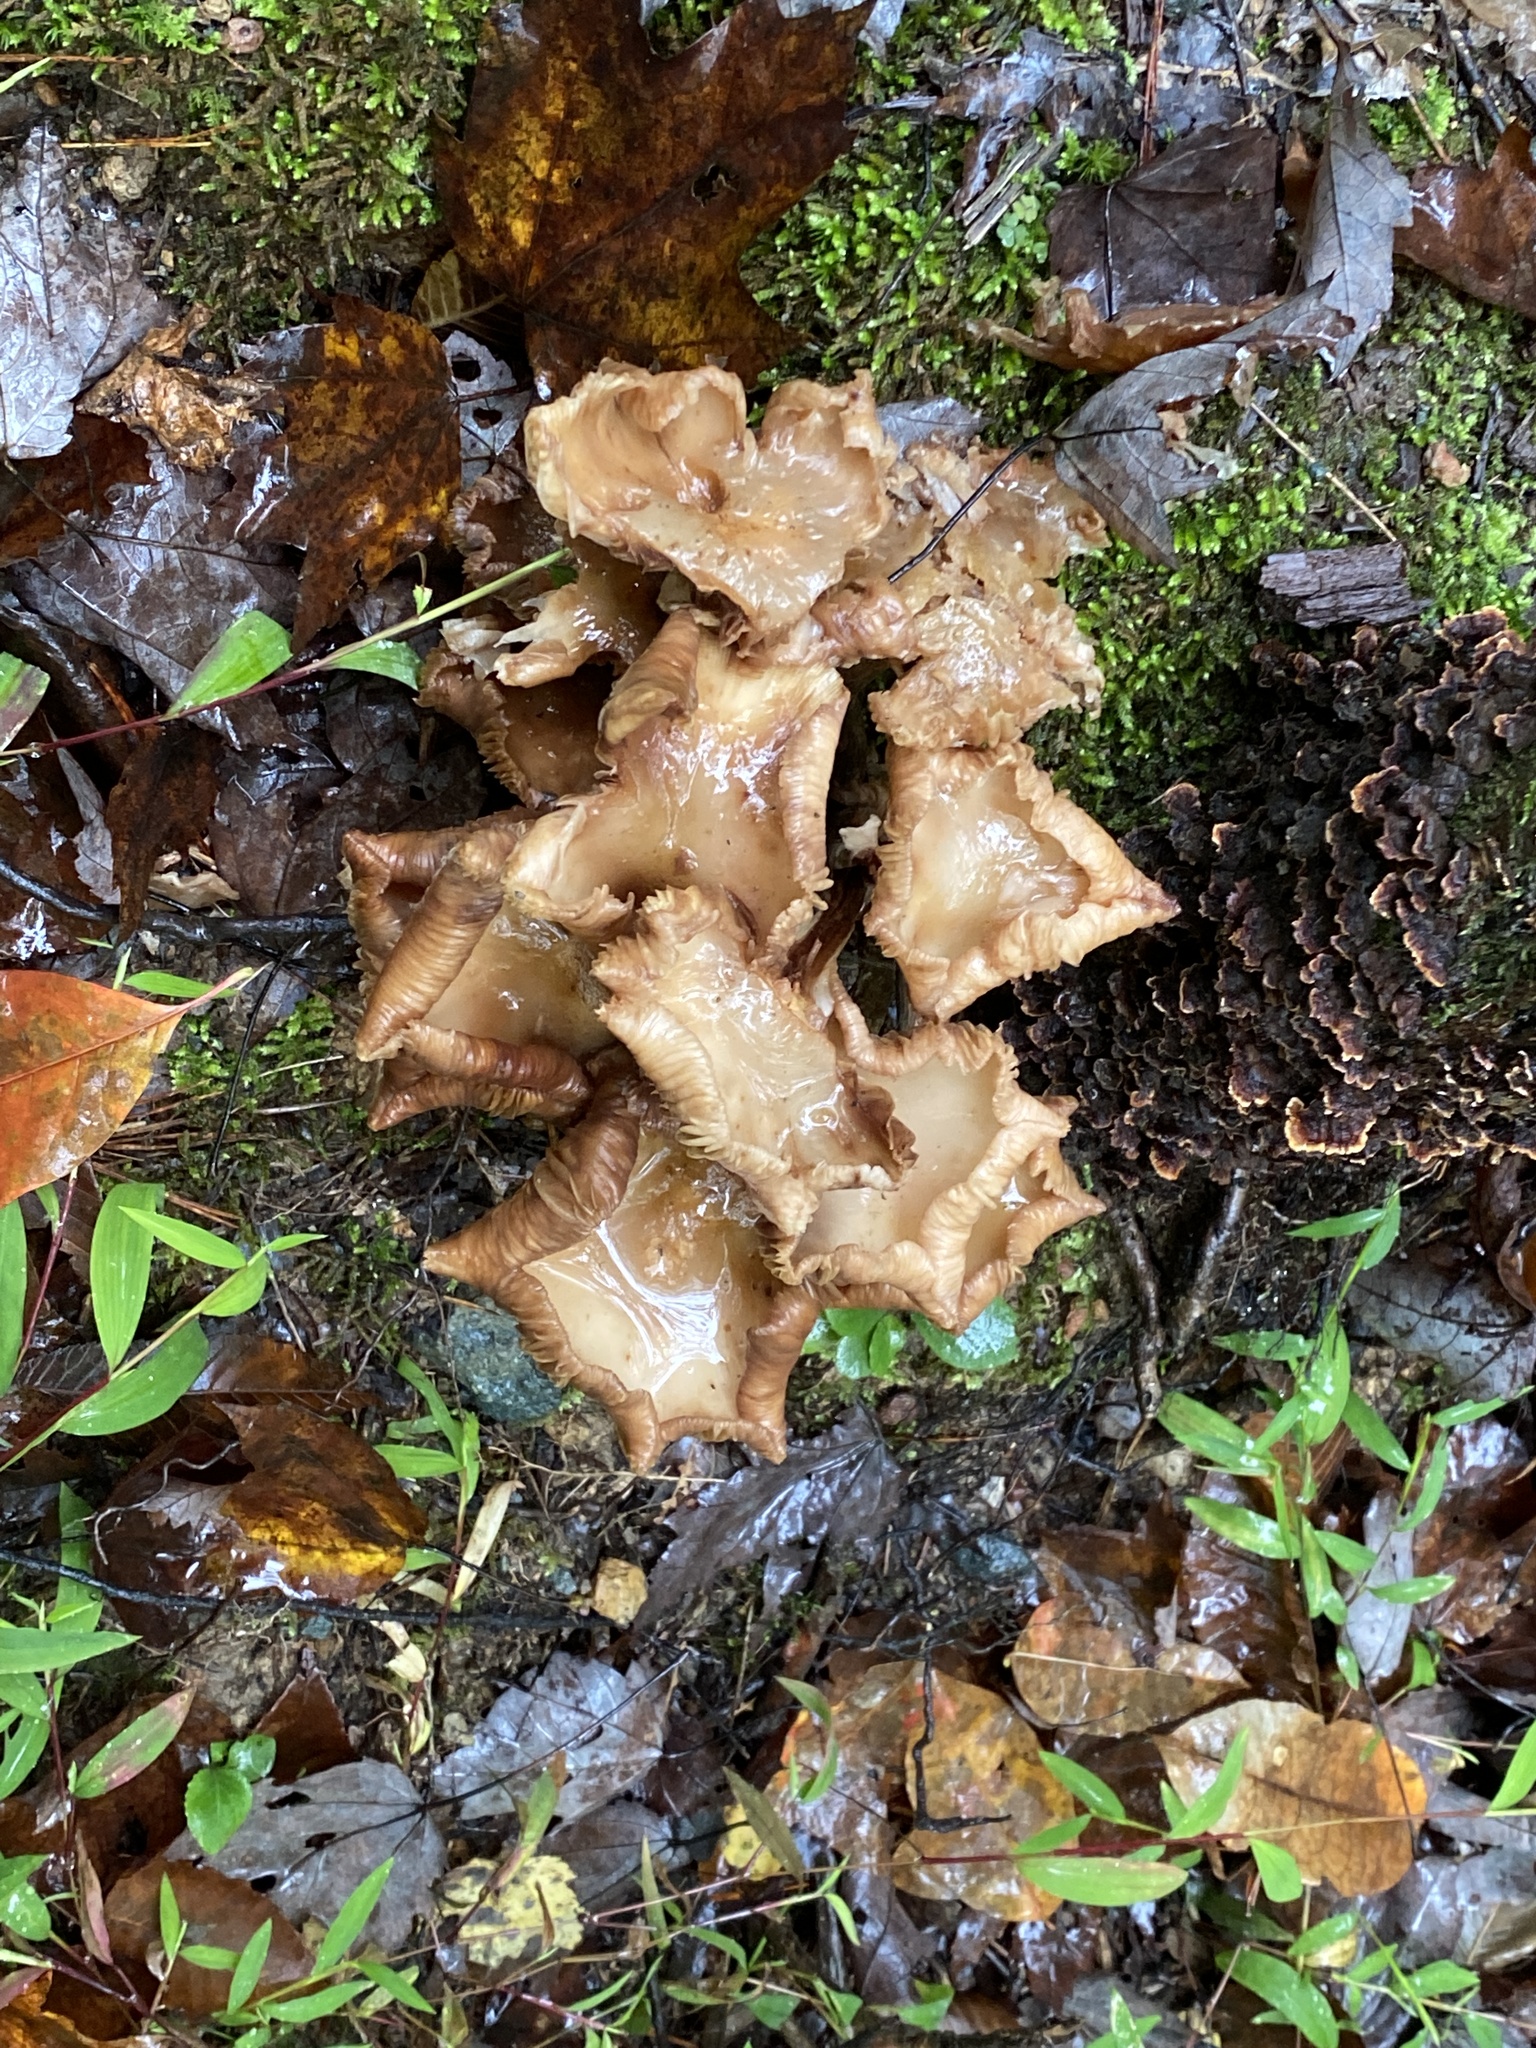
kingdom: Fungi
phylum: Basidiomycota
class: Agaricomycetes
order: Agaricales
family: Physalacriaceae
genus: Desarmillaria
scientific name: Desarmillaria caespitosa
